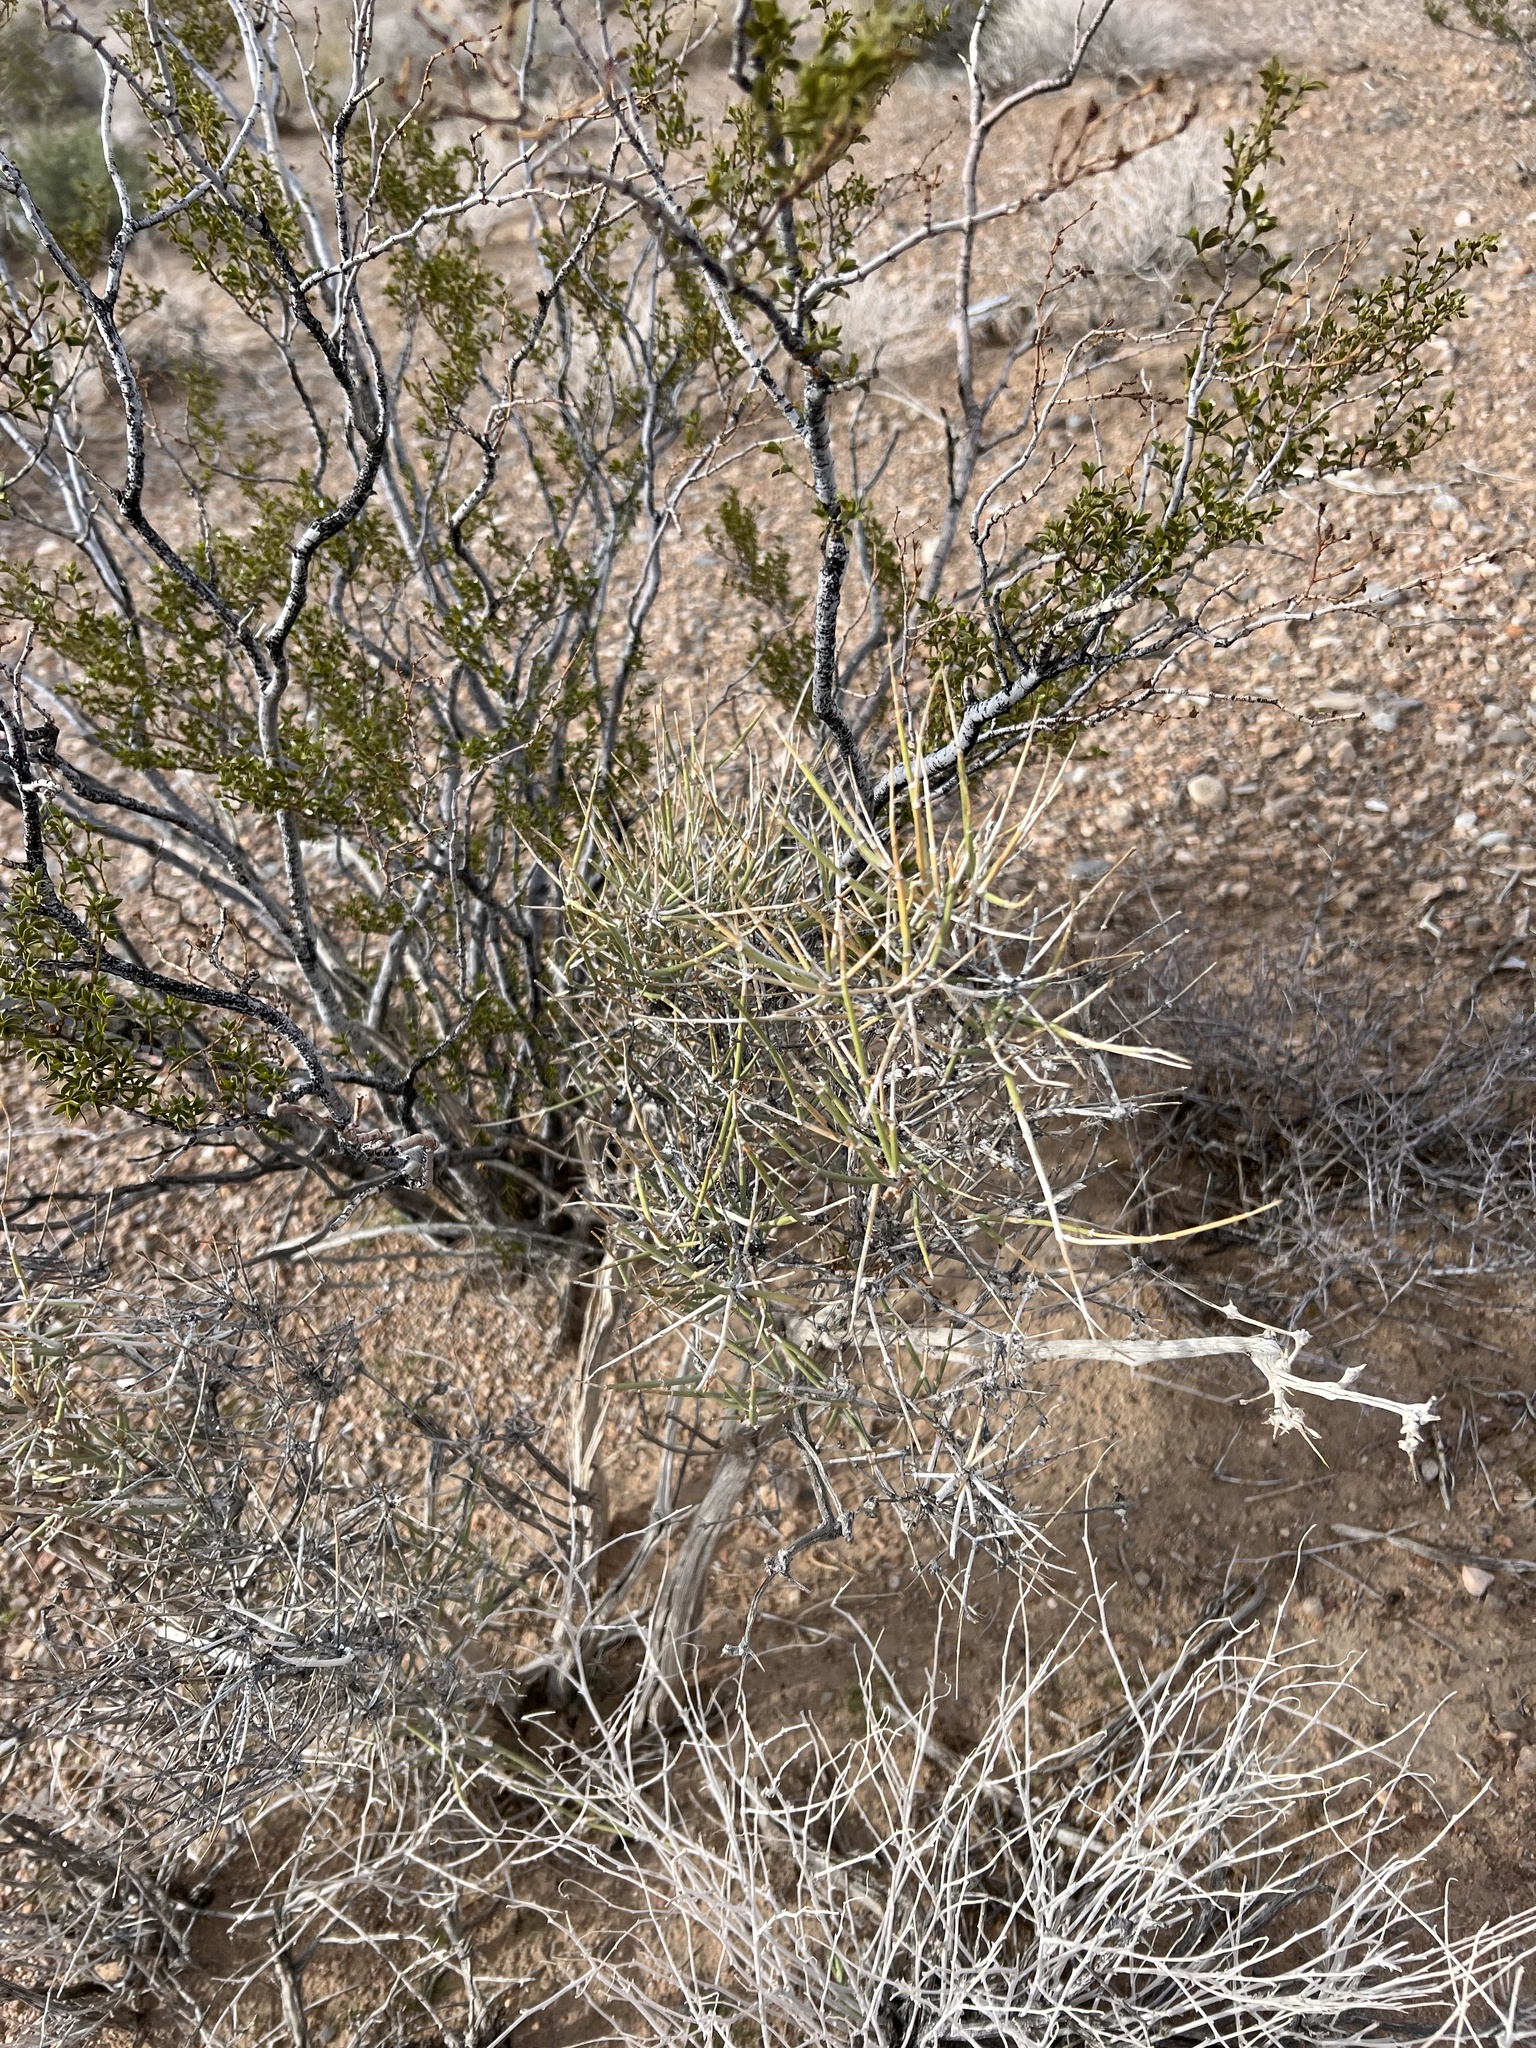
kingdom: Plantae
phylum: Tracheophyta
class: Gnetopsida
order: Ephedrales
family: Ephedraceae
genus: Ephedra
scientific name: Ephedra nevadensis
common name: Gray ephedra
